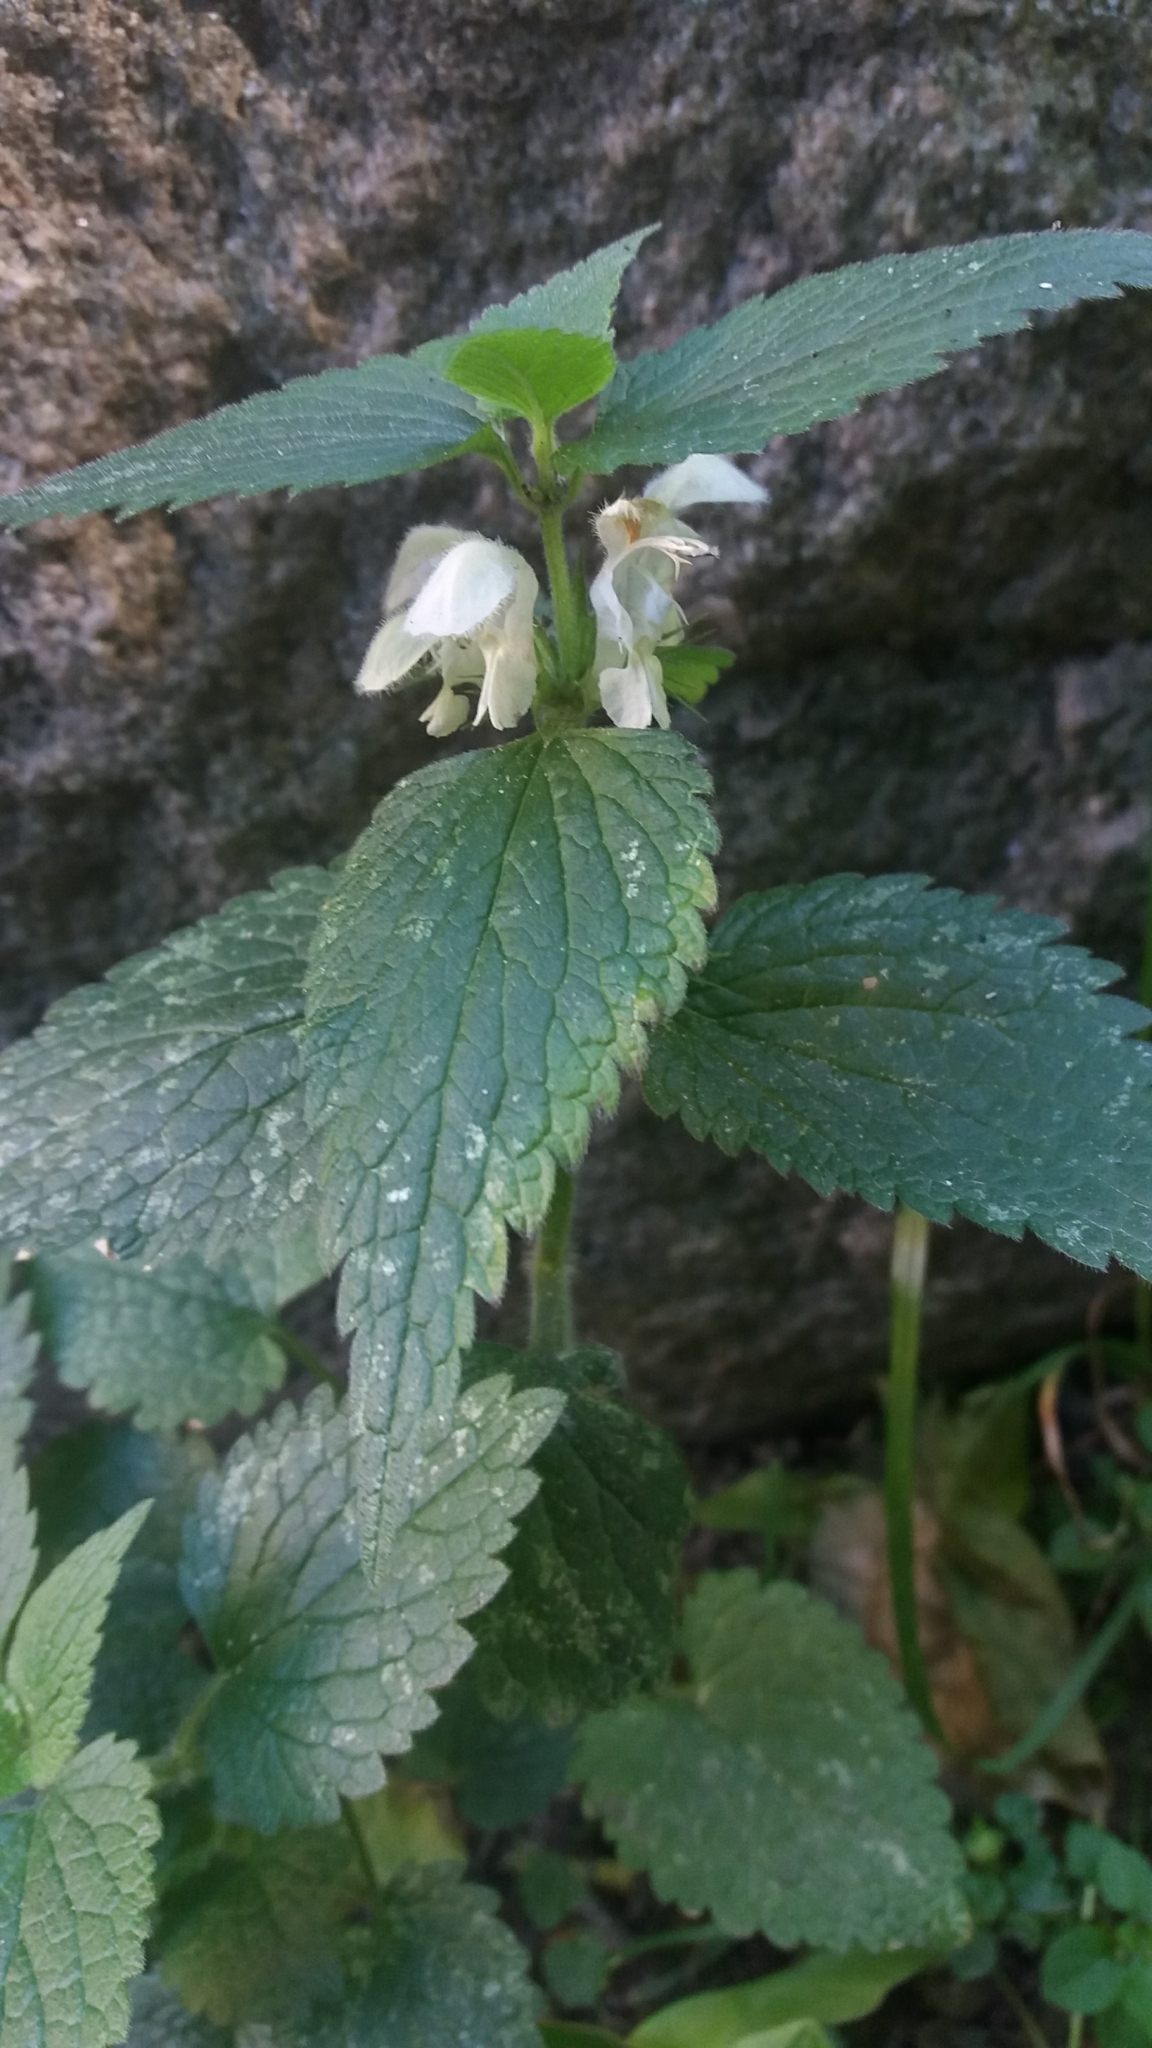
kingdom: Plantae
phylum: Tracheophyta
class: Magnoliopsida
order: Lamiales
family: Lamiaceae
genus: Lamium
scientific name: Lamium album
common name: White dead-nettle
